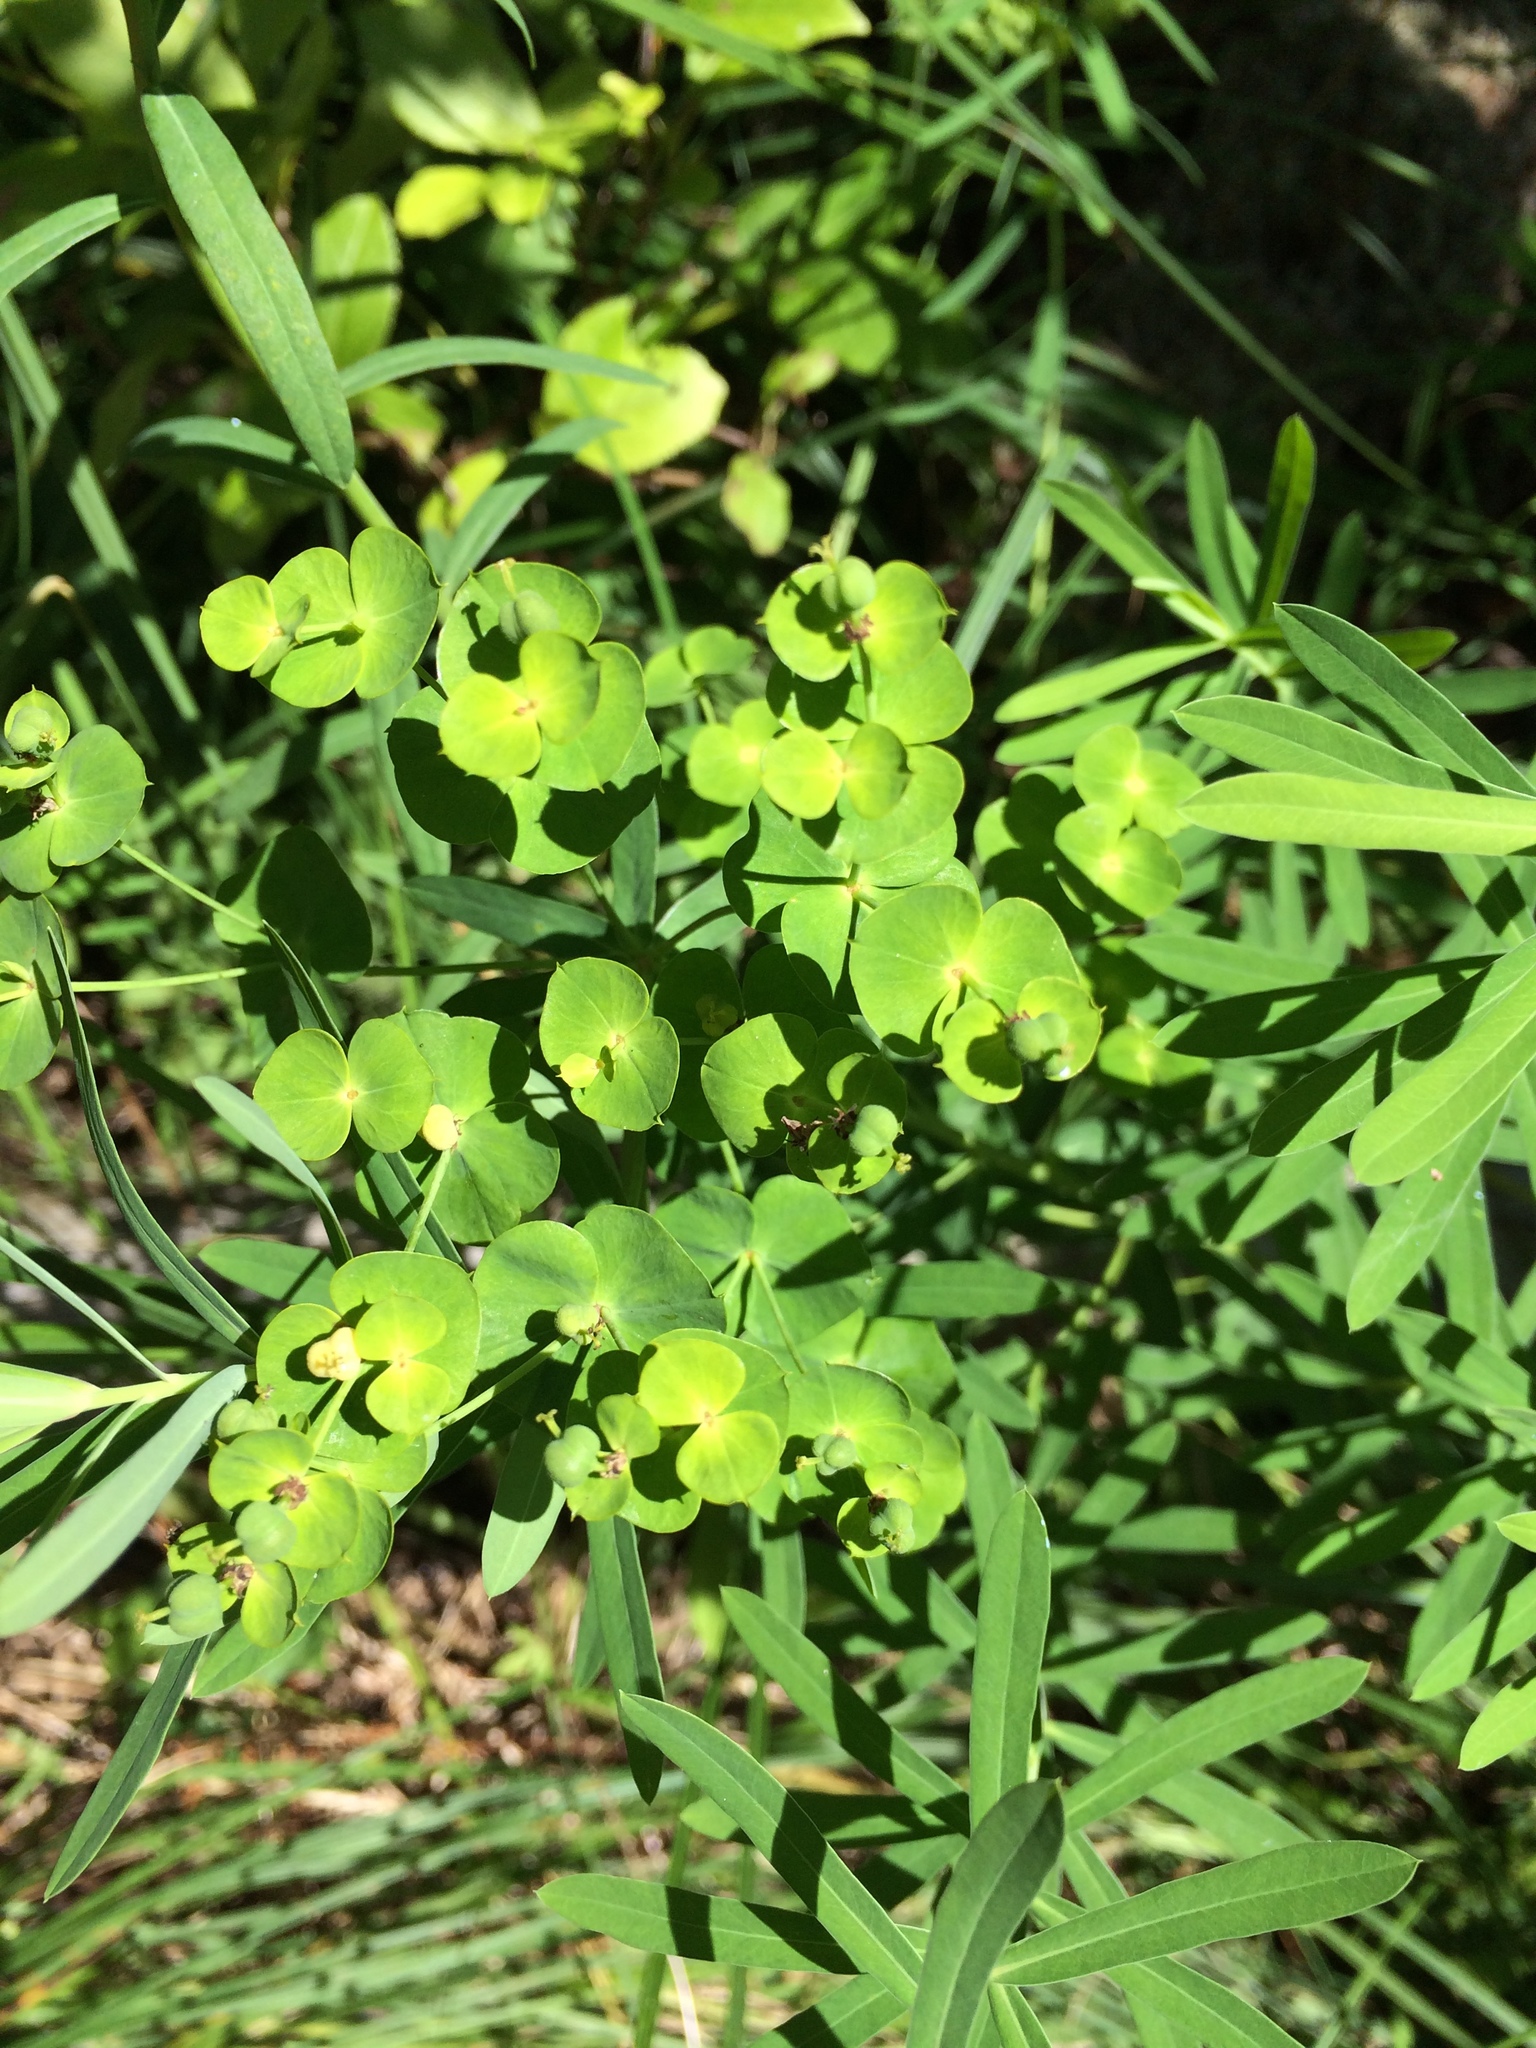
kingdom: Plantae
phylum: Tracheophyta
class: Magnoliopsida
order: Malpighiales
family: Euphorbiaceae
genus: Euphorbia
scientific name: Euphorbia virgata
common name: Leafy spurge
